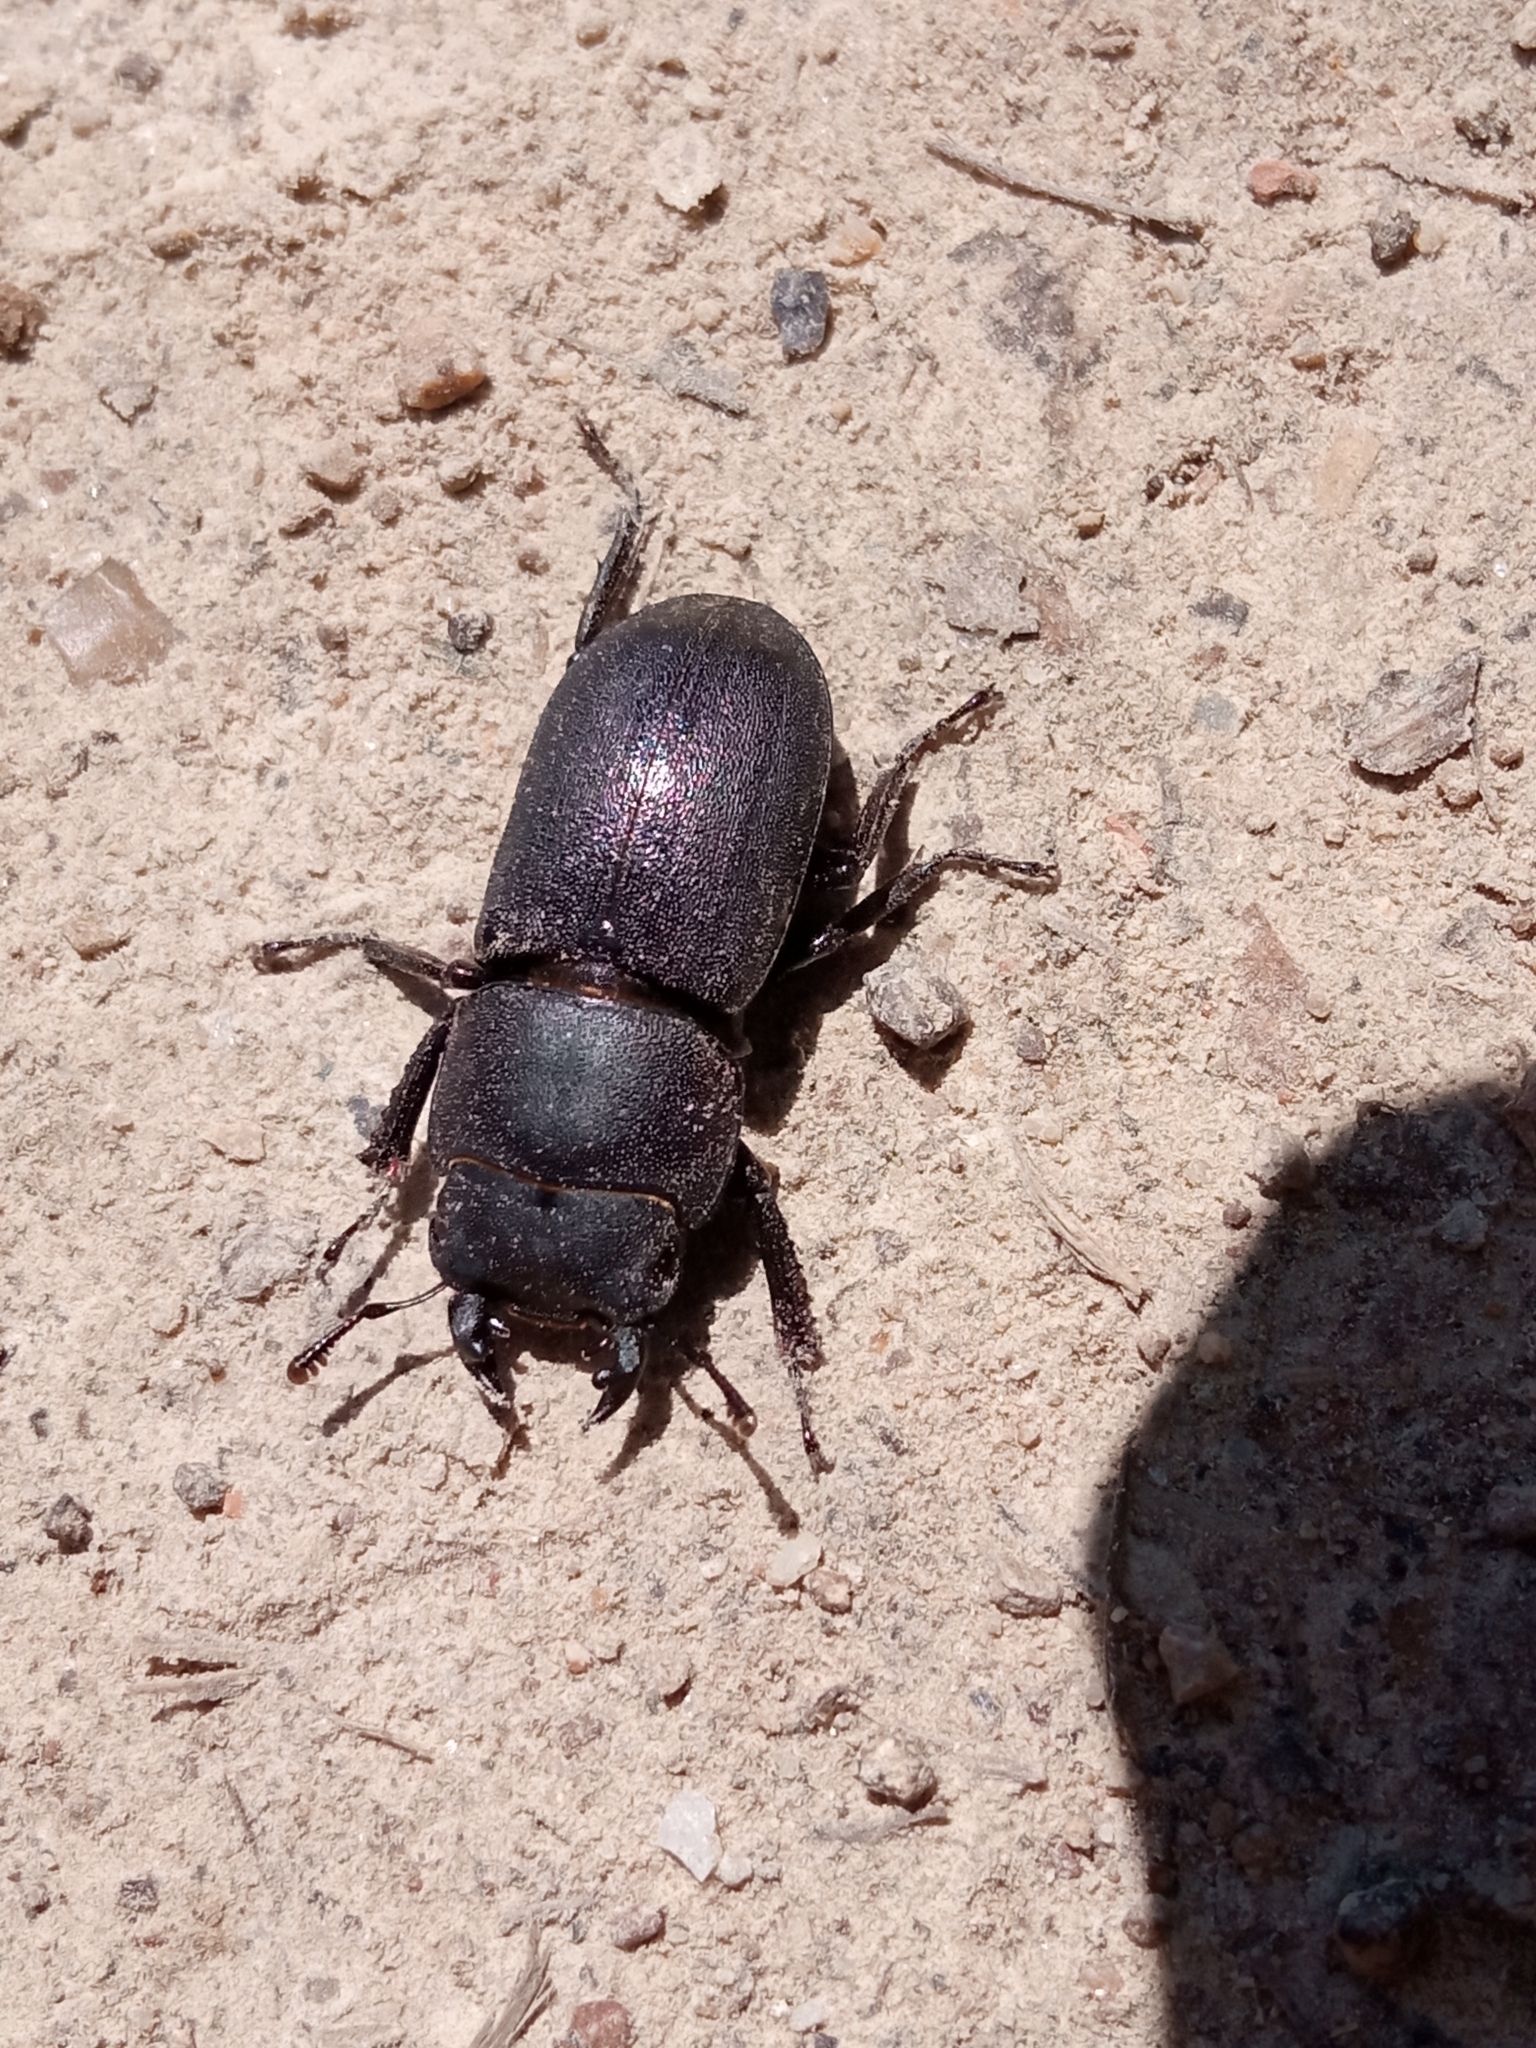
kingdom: Animalia
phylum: Arthropoda
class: Insecta
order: Coleoptera
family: Lucanidae
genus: Dorcus
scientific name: Dorcus parallelipipedus
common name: Lesser stag beetle
